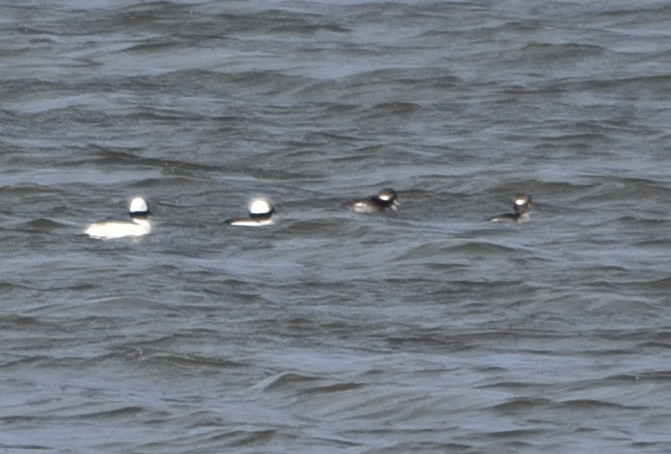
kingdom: Animalia
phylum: Chordata
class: Aves
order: Anseriformes
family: Anatidae
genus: Bucephala
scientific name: Bucephala albeola
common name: Bufflehead
